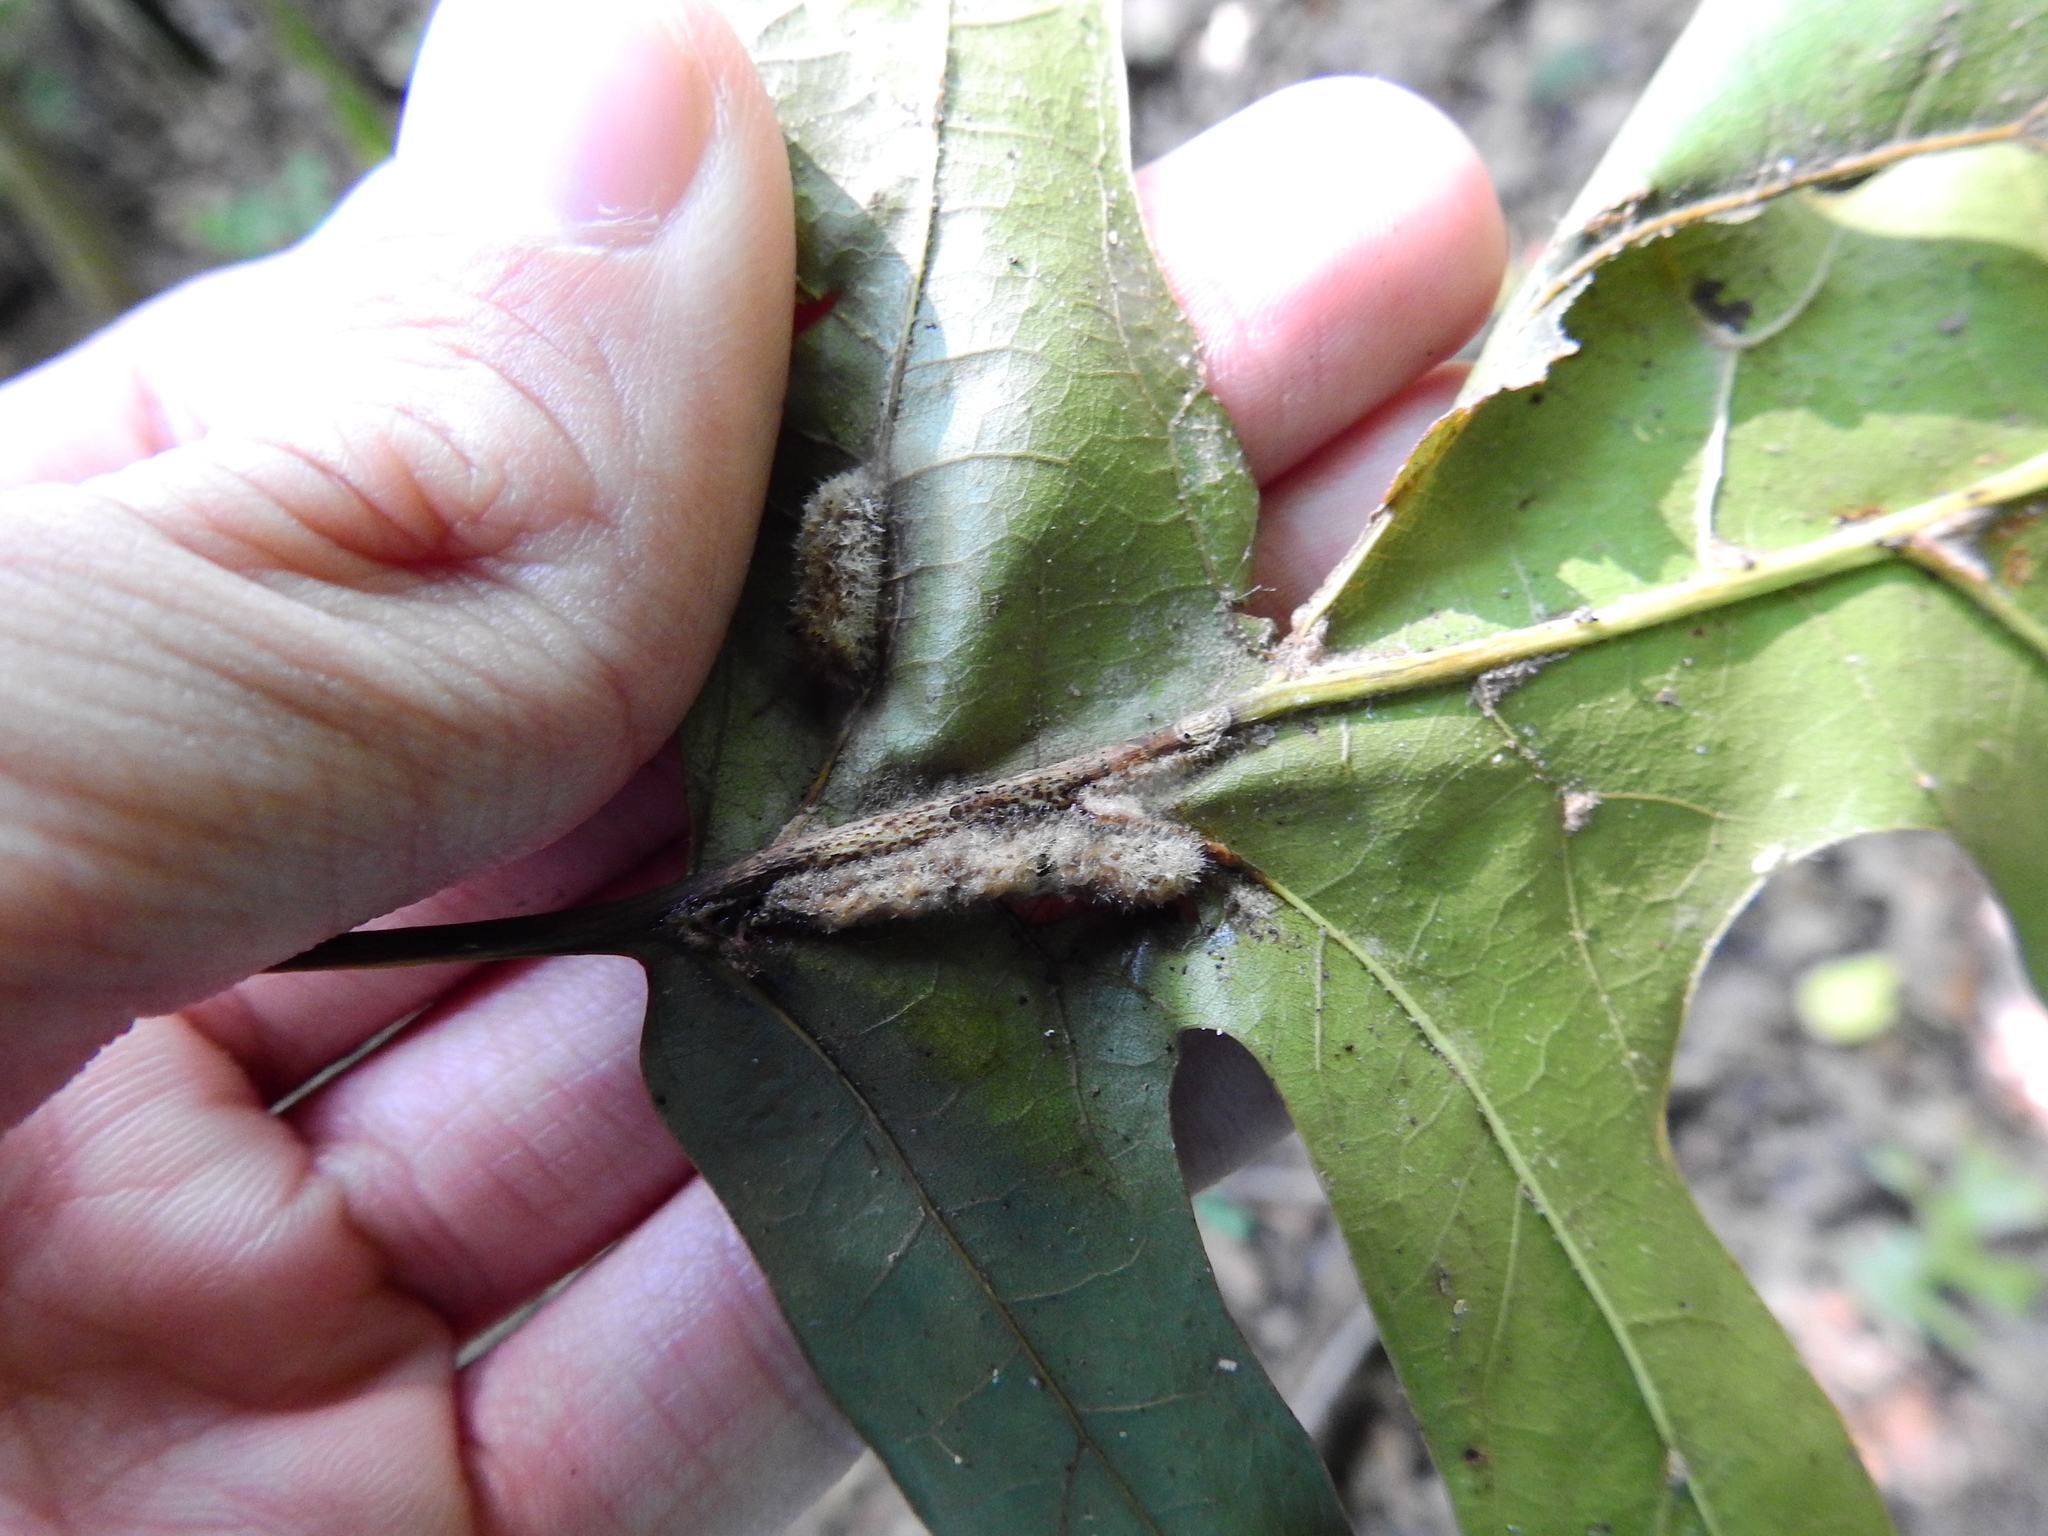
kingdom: Animalia
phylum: Arthropoda
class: Insecta
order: Diptera
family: Cecidomyiidae
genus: Macrodiplosis
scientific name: Macrodiplosis niveipila
